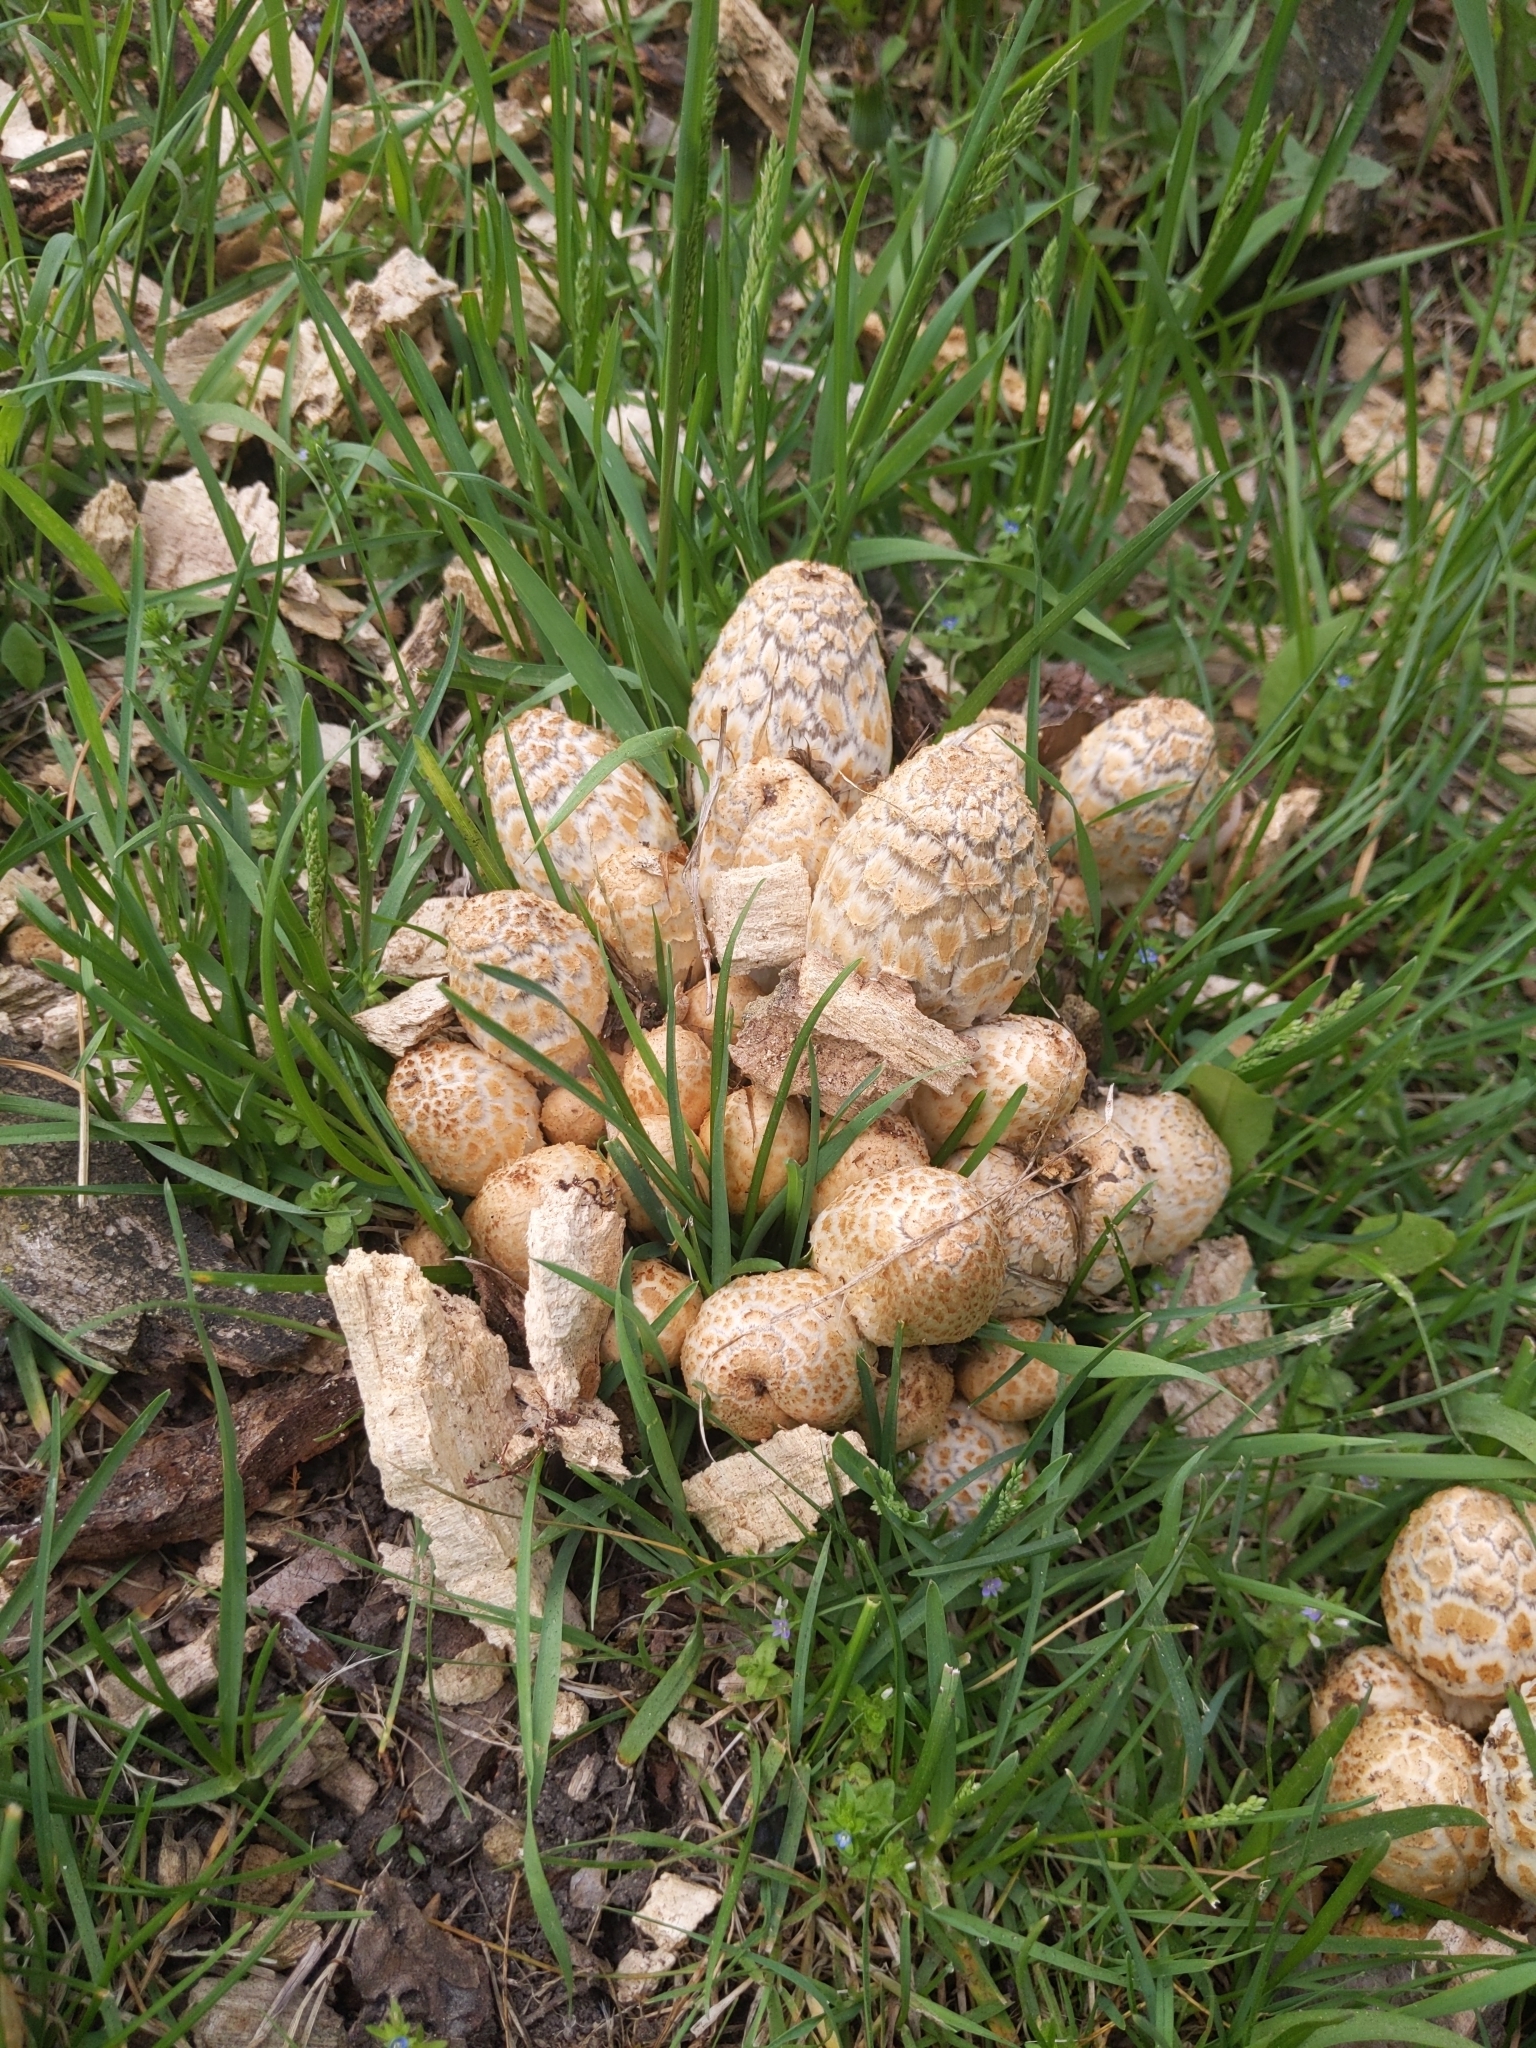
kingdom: Fungi
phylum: Basidiomycota
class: Agaricomycetes
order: Agaricales
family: Psathyrellaceae
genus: Coprinopsis
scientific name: Coprinopsis variegata
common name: Scaly ink cap
